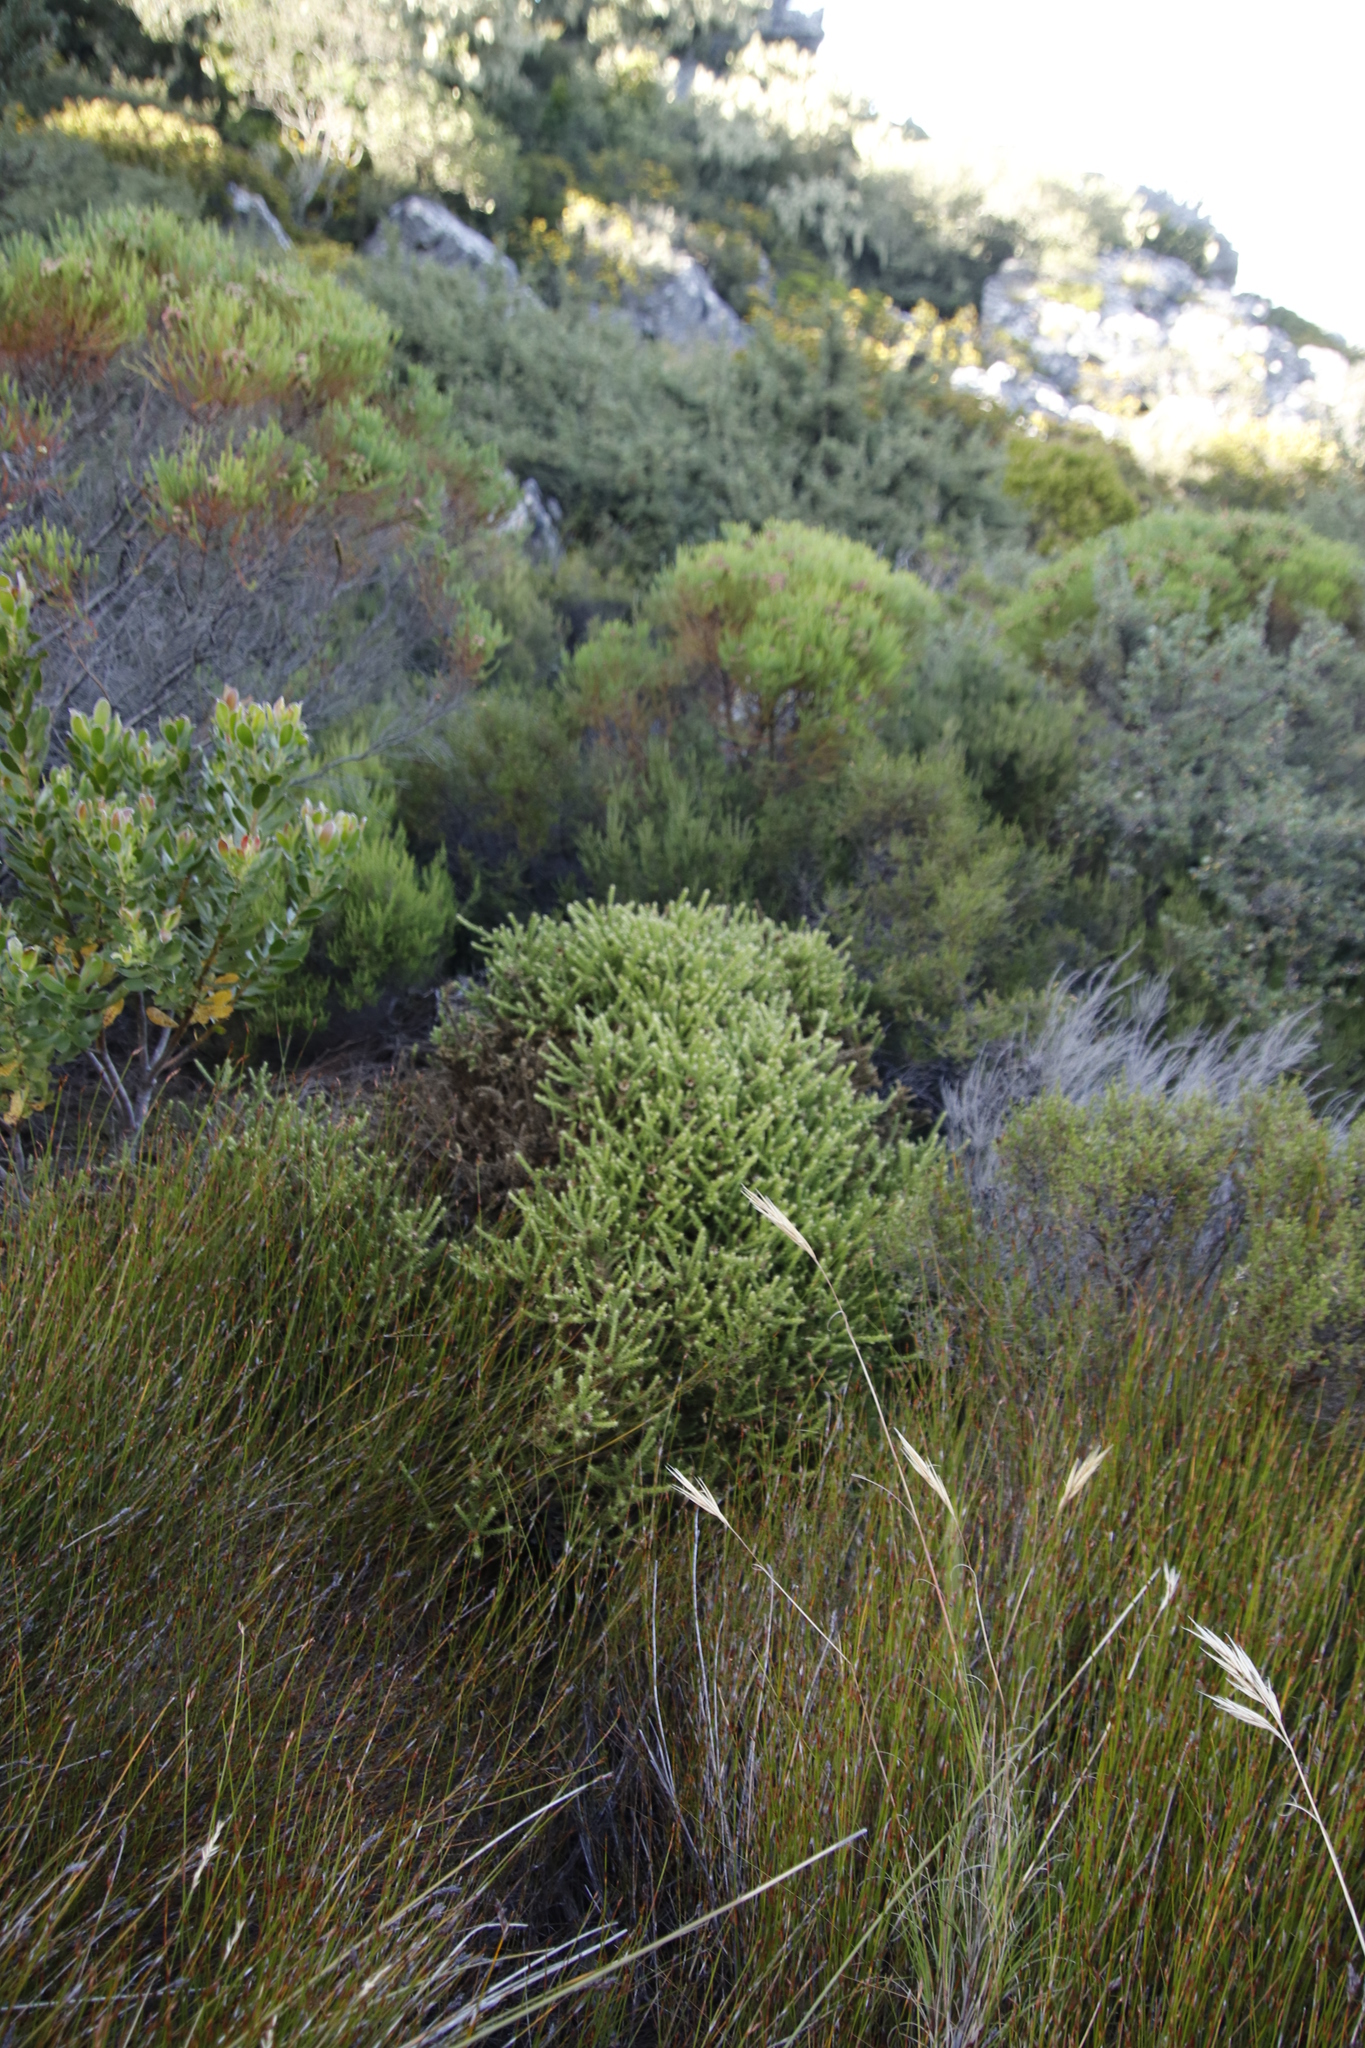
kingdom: Plantae
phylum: Tracheophyta
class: Magnoliopsida
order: Asterales
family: Asteraceae
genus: Cullumia
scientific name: Cullumia reticulata
